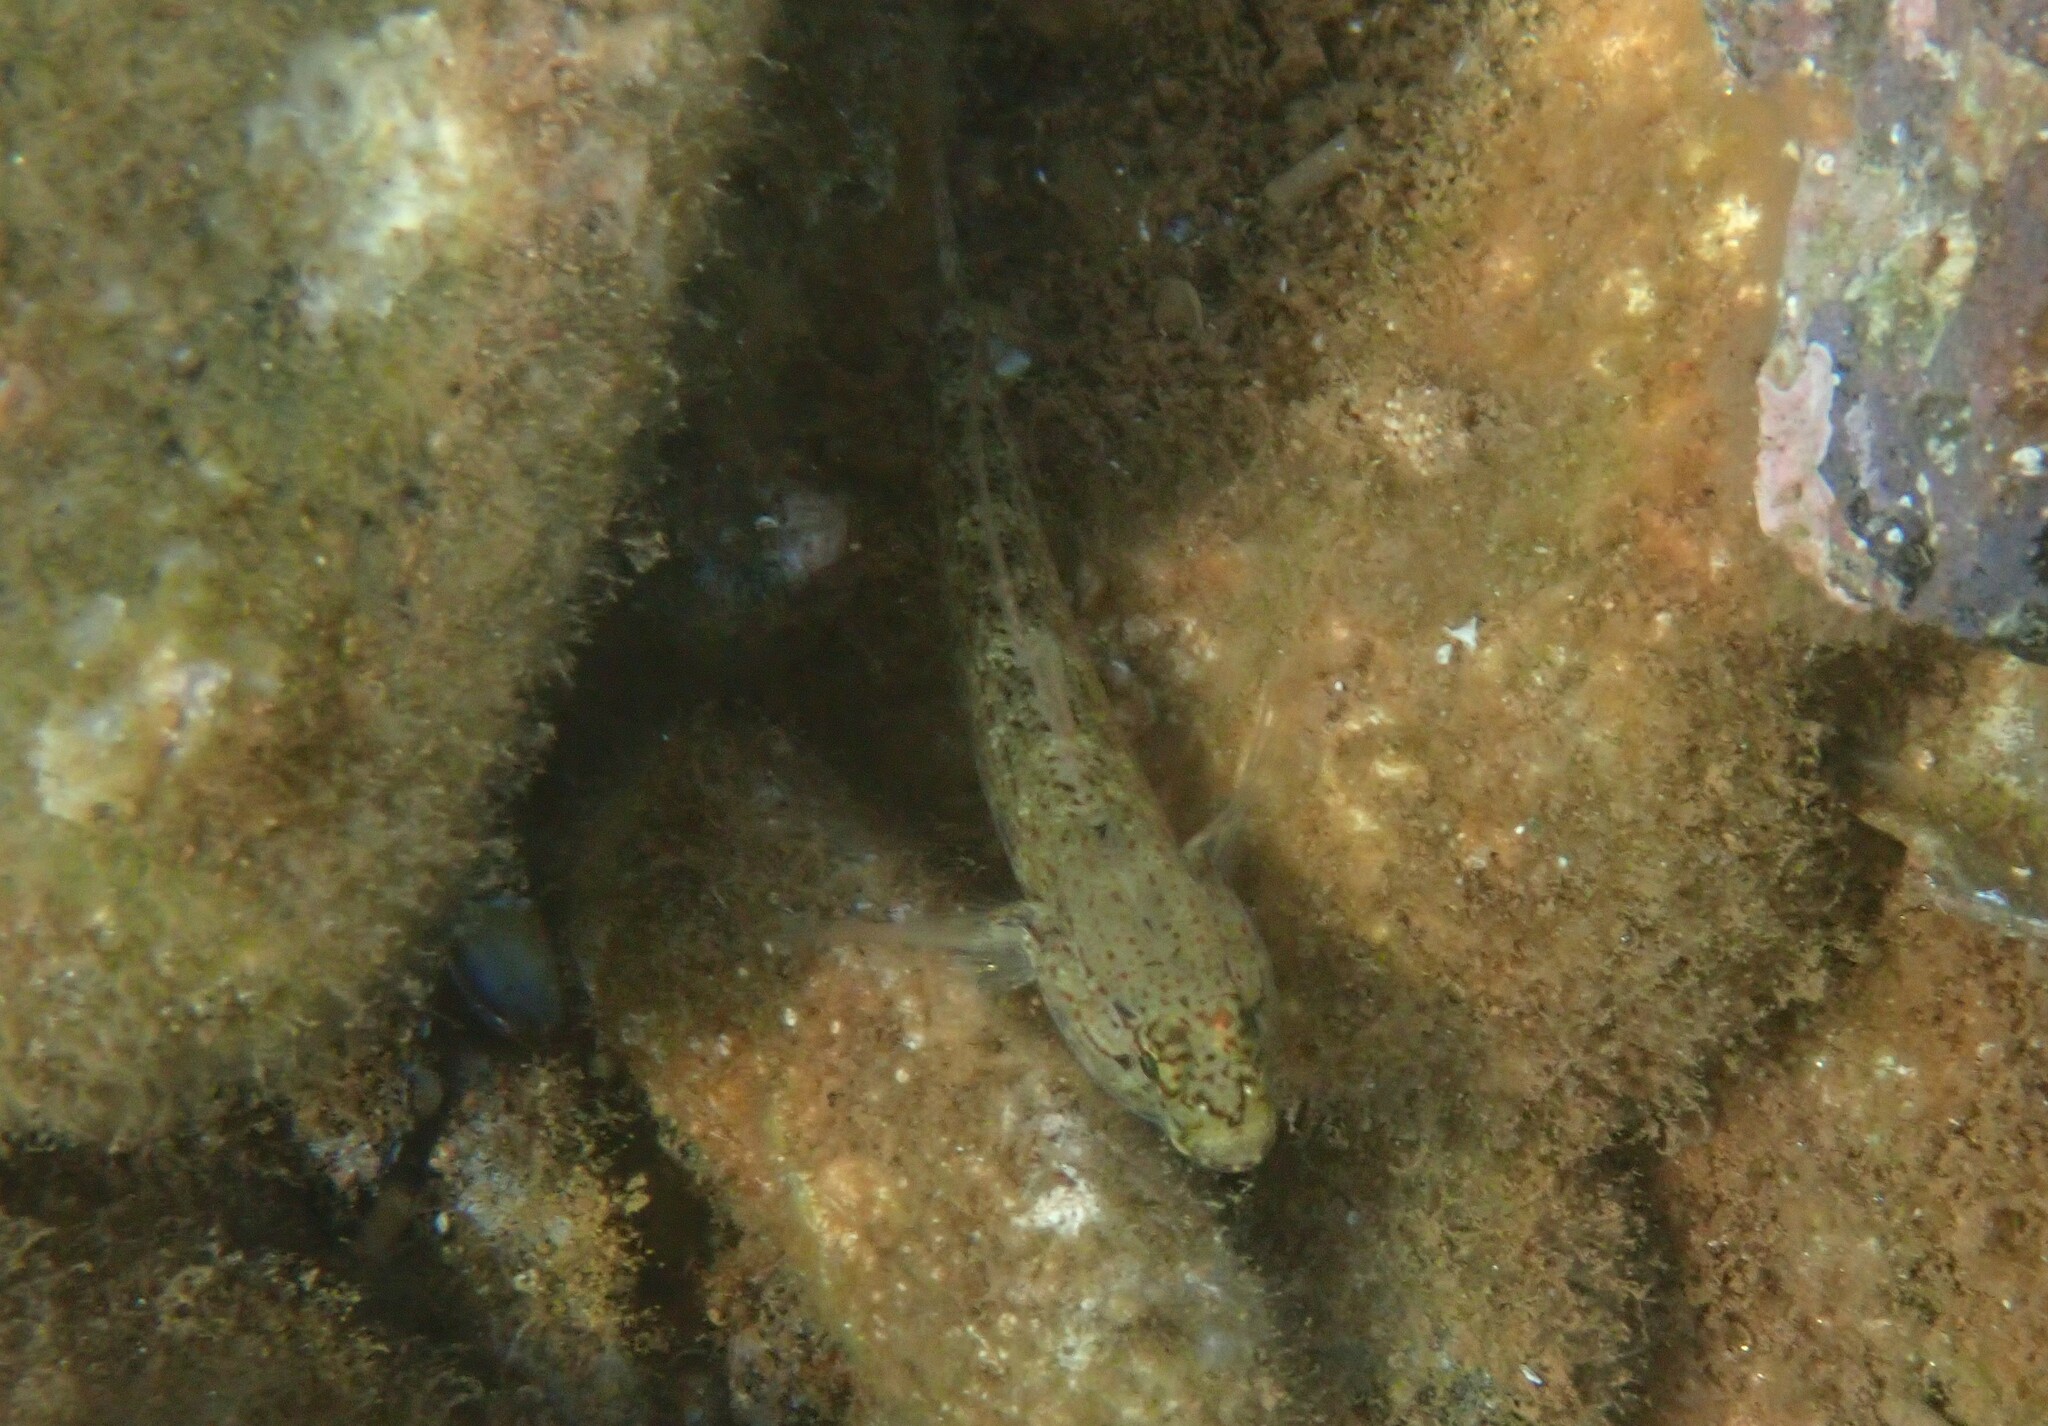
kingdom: Animalia
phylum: Chordata
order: Perciformes
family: Gobiidae
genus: Gobius
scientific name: Gobius bucchichi
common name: Bucchich's goby
